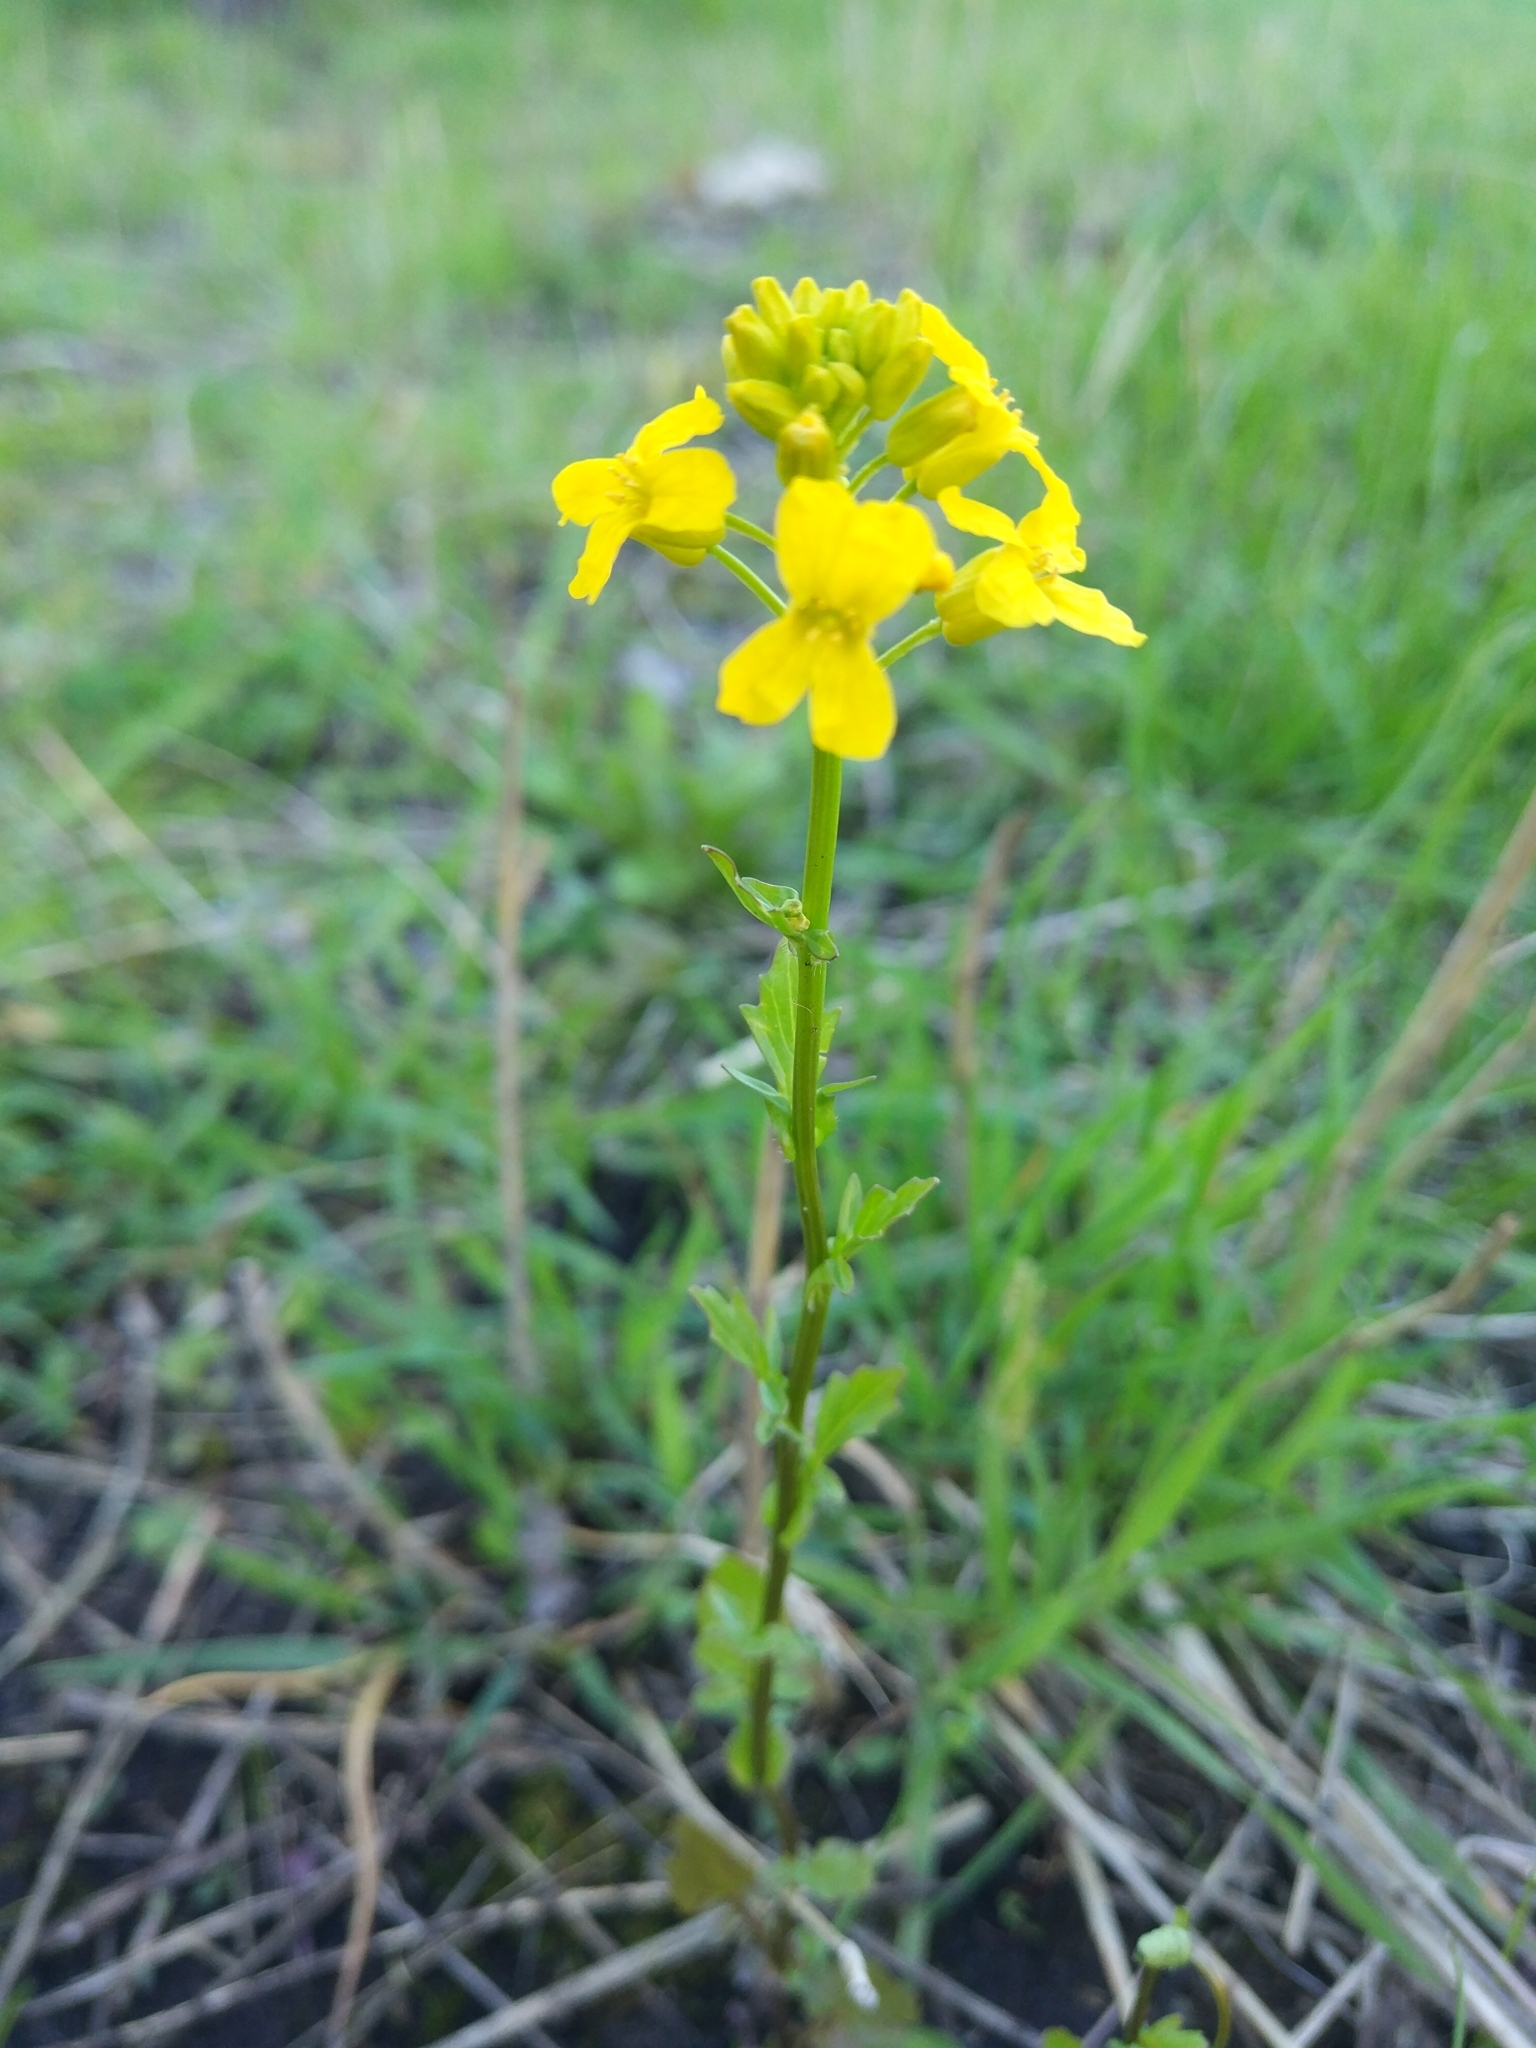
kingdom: Plantae
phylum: Tracheophyta
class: Magnoliopsida
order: Brassicales
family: Brassicaceae
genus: Barbarea
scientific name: Barbarea vulgaris
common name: Cressy-greens
